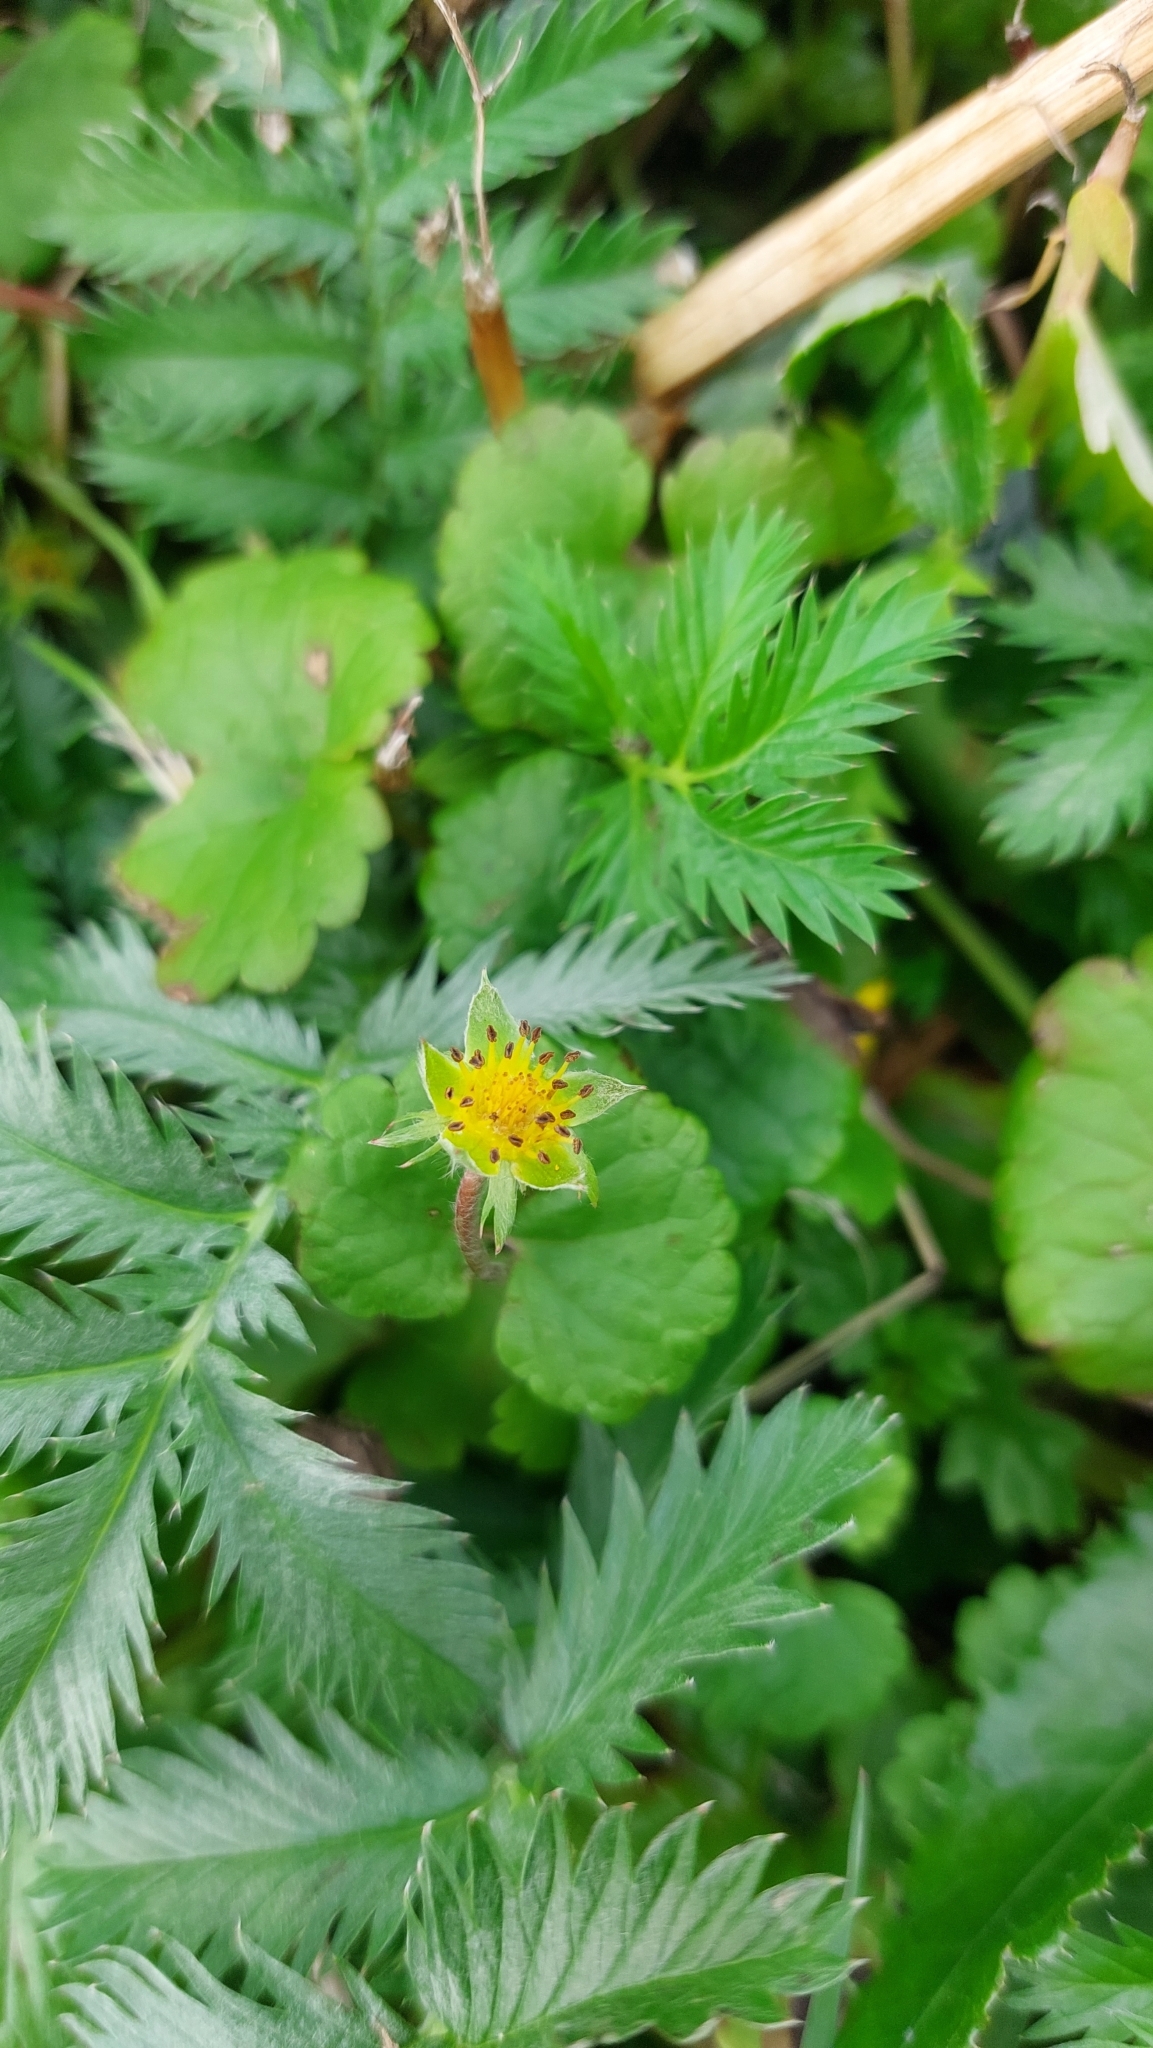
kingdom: Plantae
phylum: Tracheophyta
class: Magnoliopsida
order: Rosales
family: Rosaceae
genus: Argentina
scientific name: Argentina anserina
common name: Common silverweed
